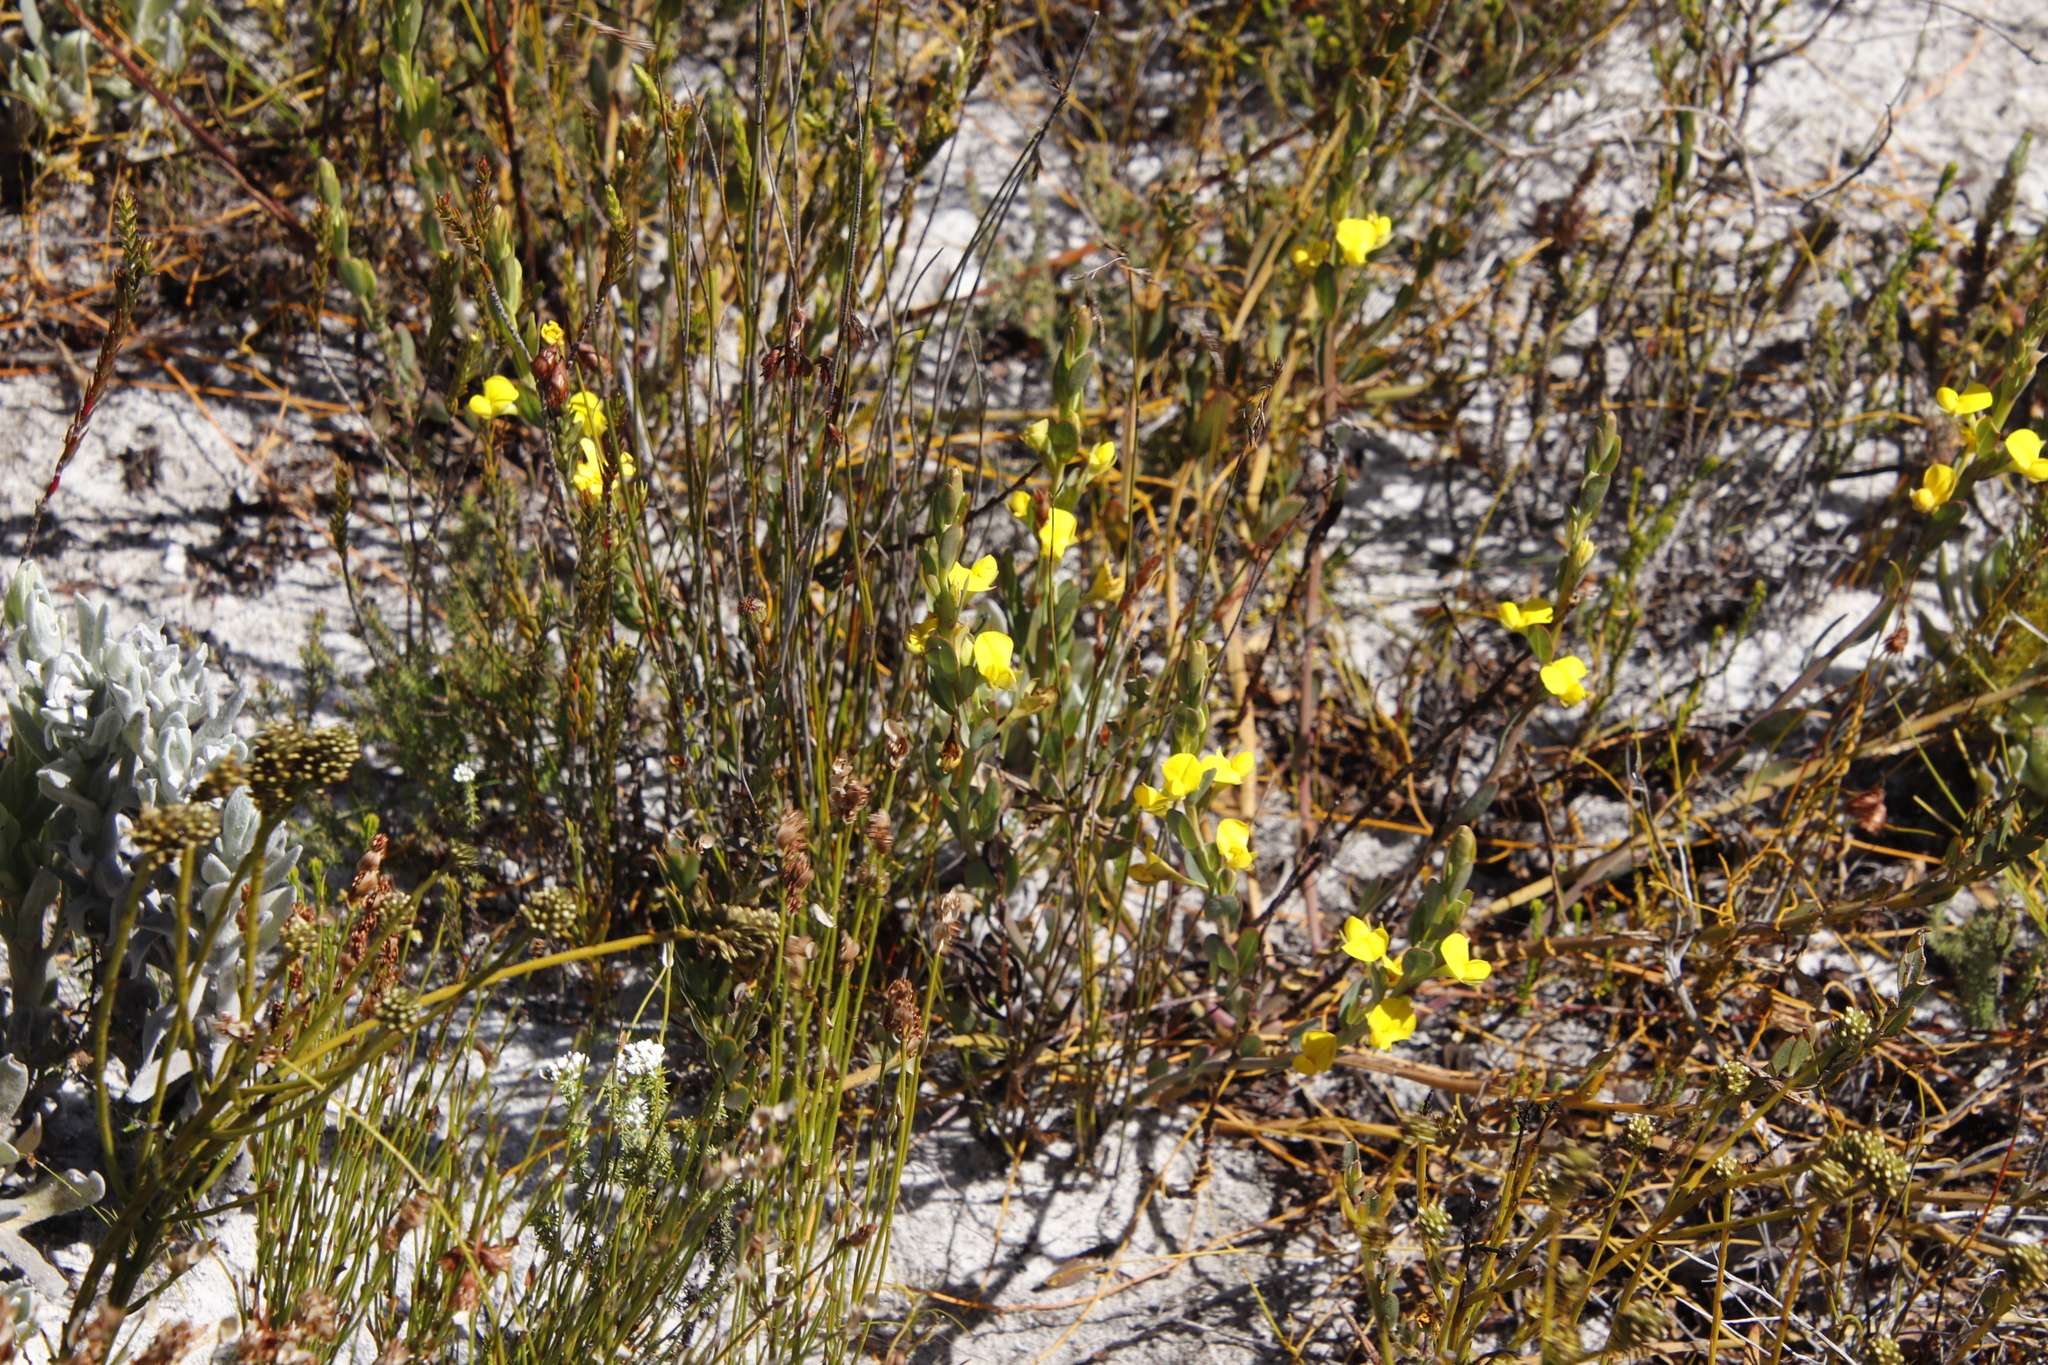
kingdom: Plantae
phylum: Tracheophyta
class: Magnoliopsida
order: Fabales
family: Fabaceae
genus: Rafnia
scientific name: Rafnia crassifolia
